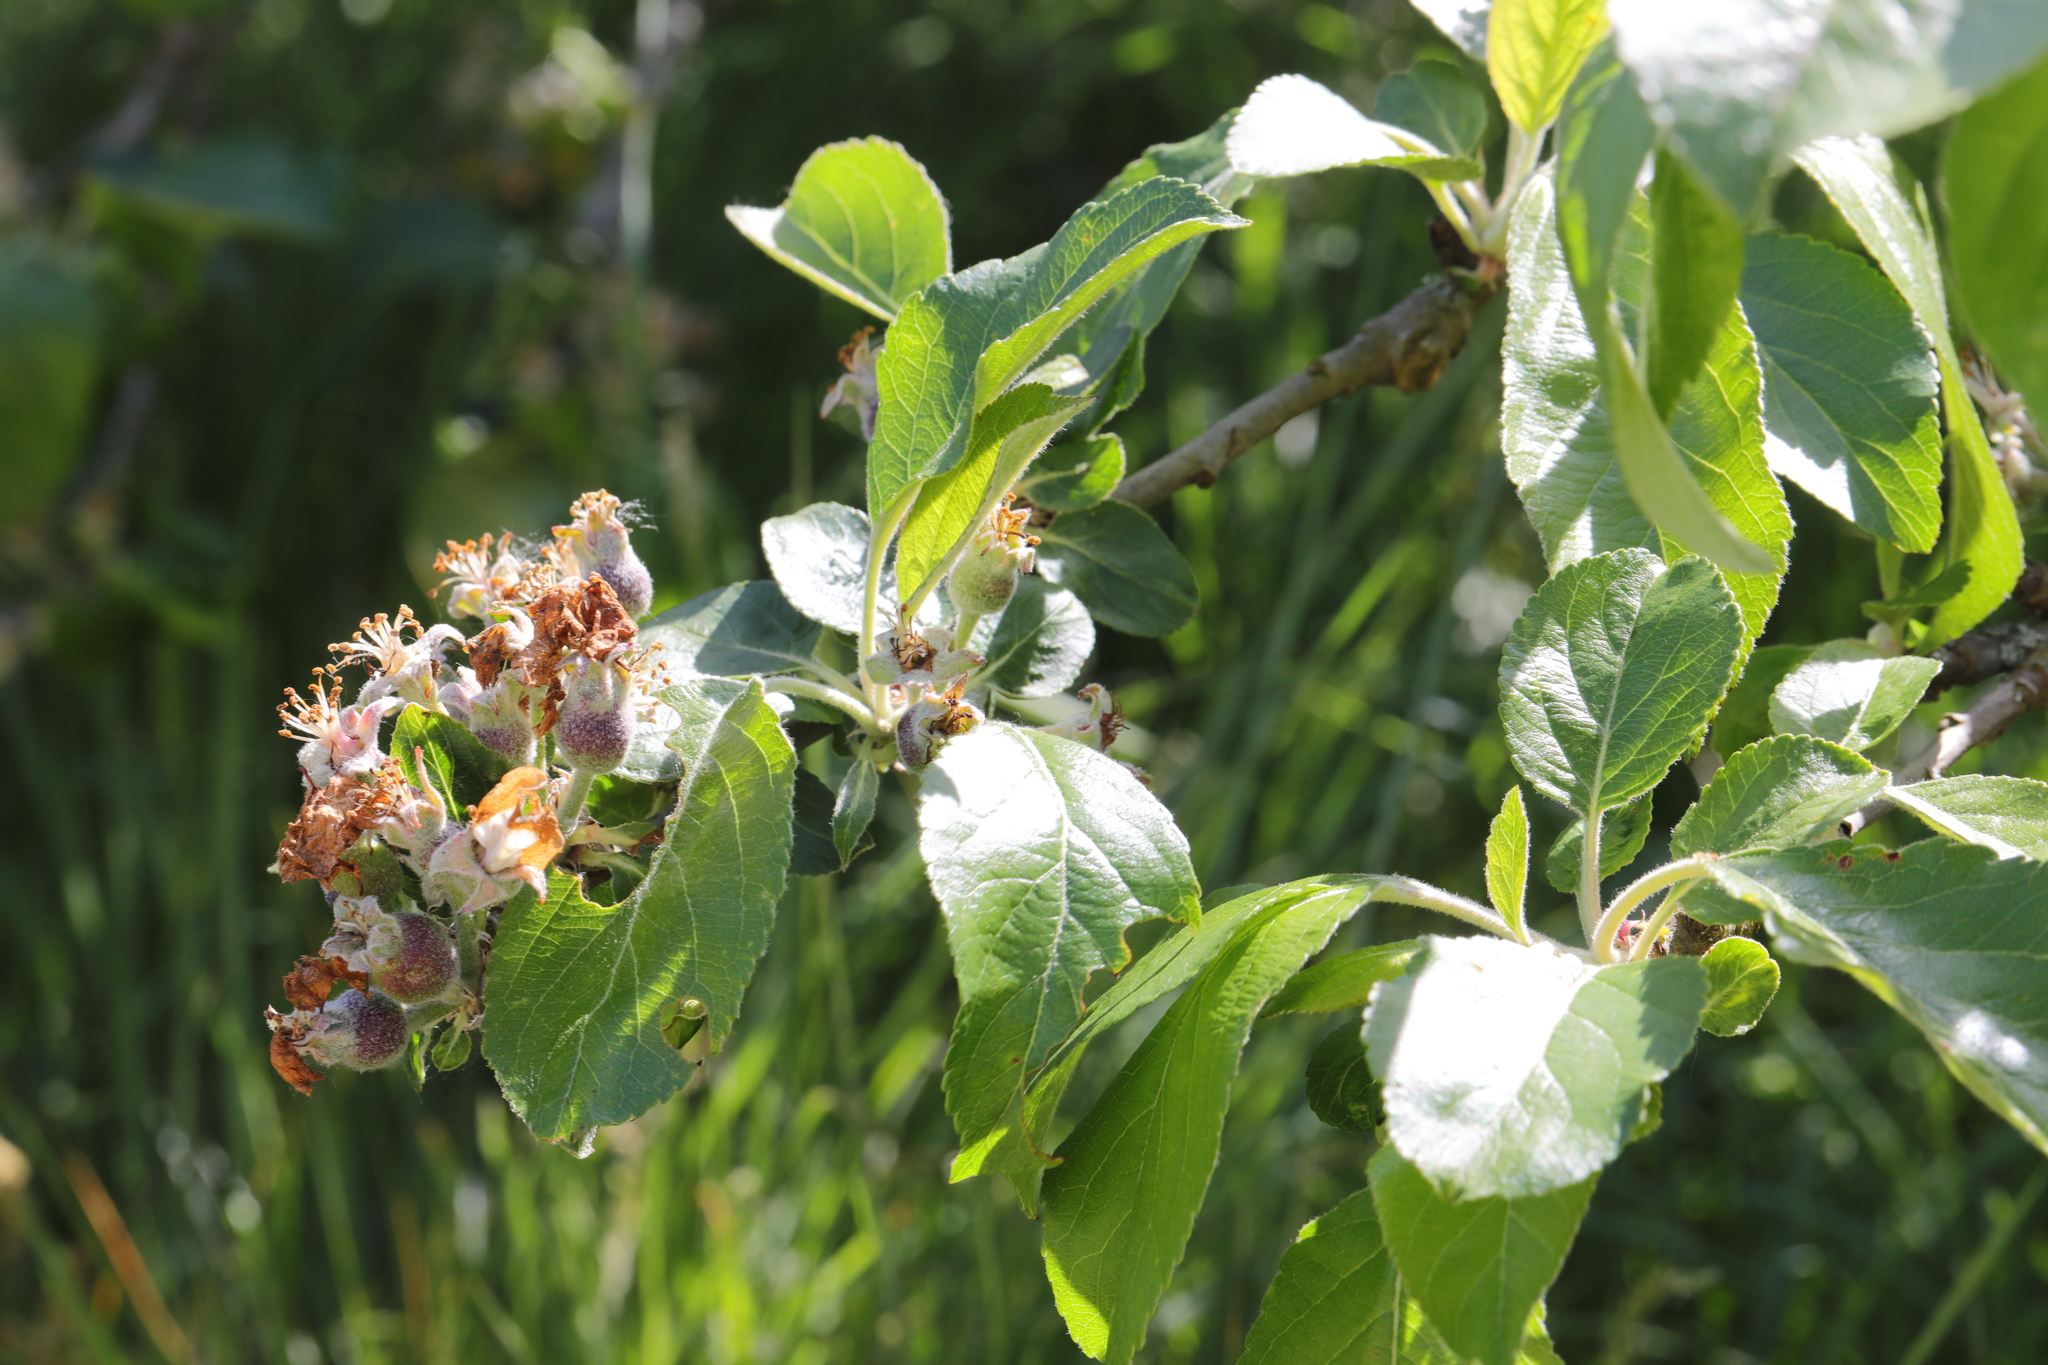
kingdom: Plantae
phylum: Tracheophyta
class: Magnoliopsida
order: Rosales
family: Rosaceae
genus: Malus
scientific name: Malus domestica
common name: Apple
